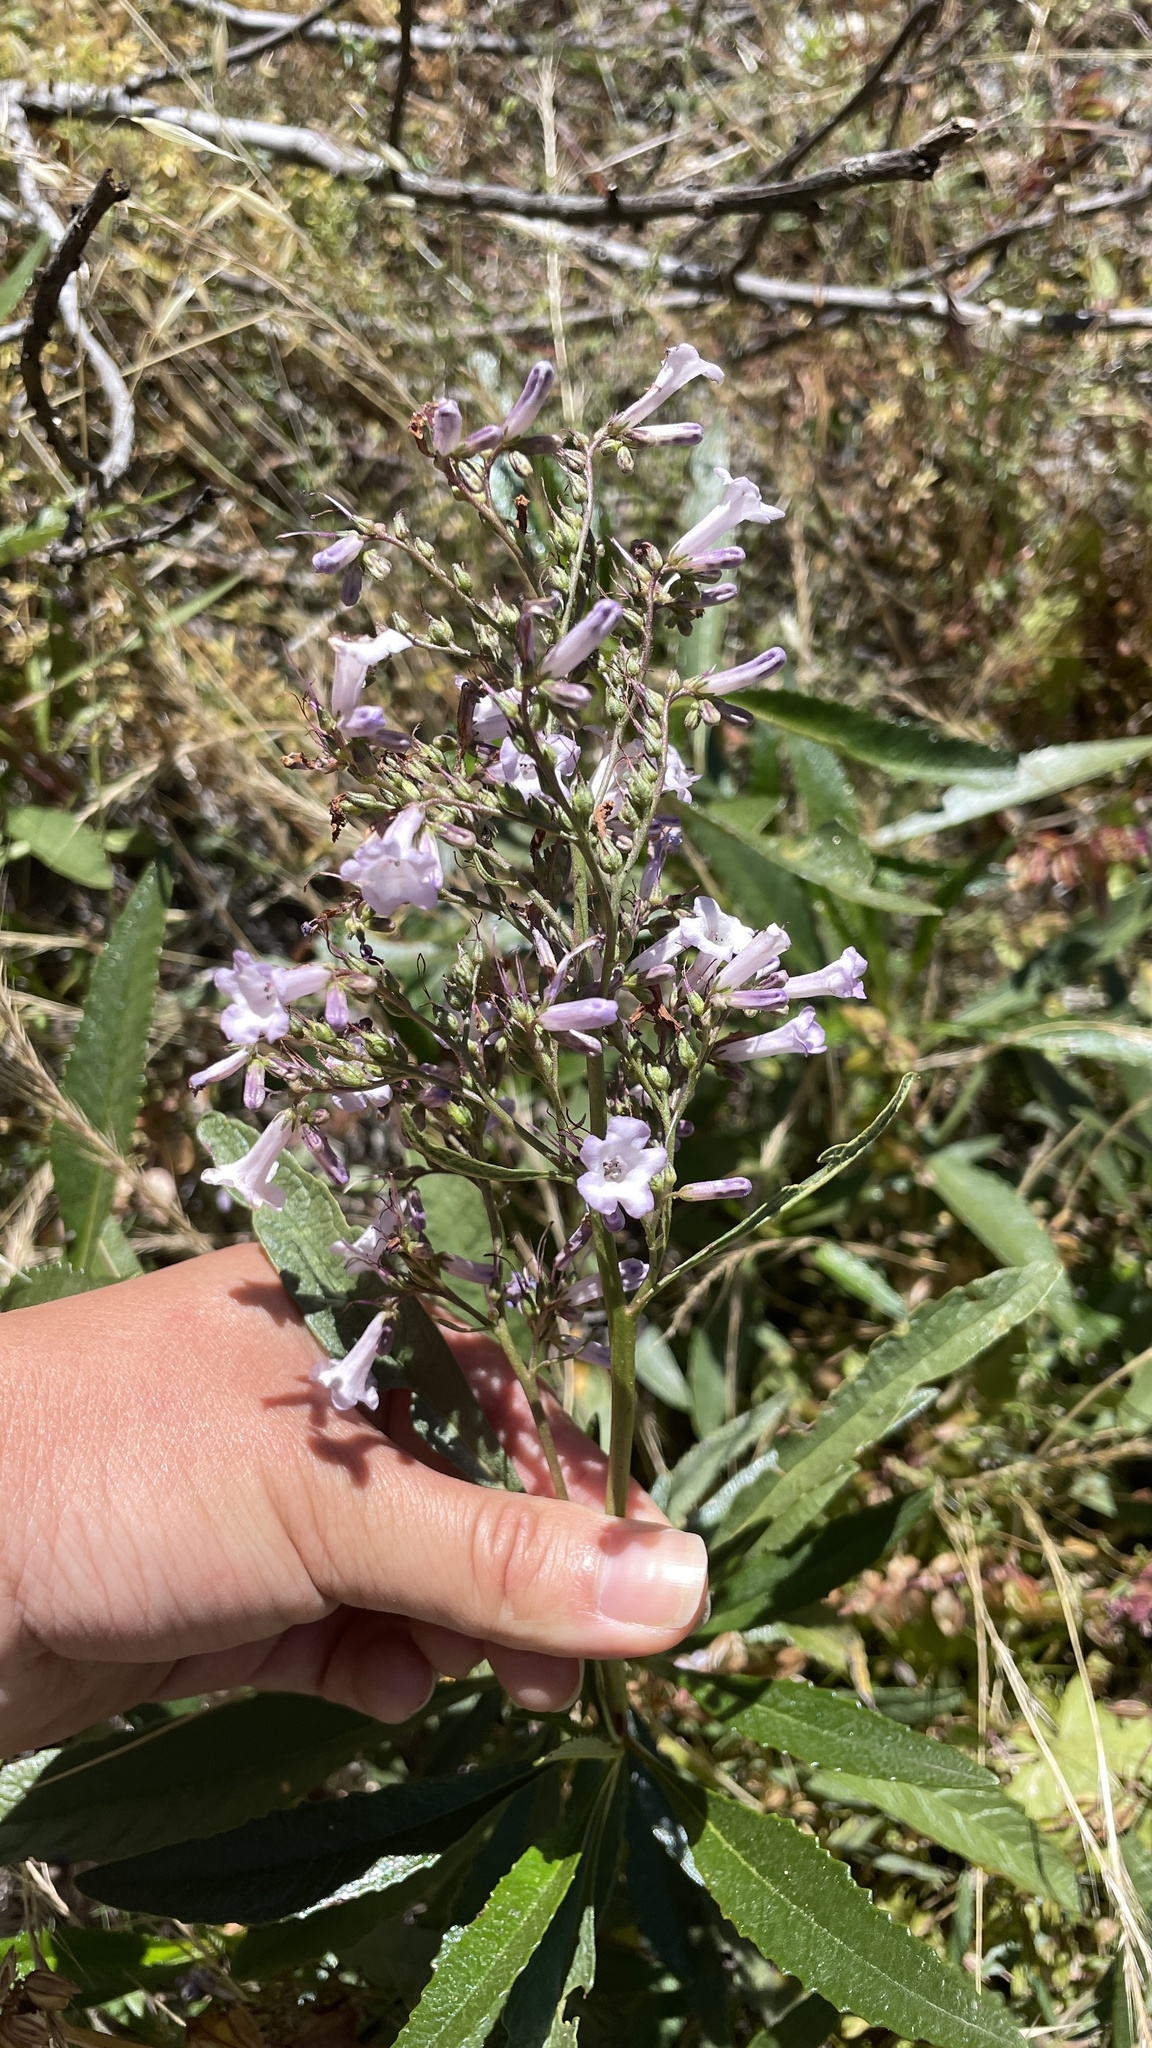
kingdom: Plantae
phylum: Tracheophyta
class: Magnoliopsida
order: Boraginales
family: Namaceae
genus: Eriodictyon
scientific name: Eriodictyon californicum
